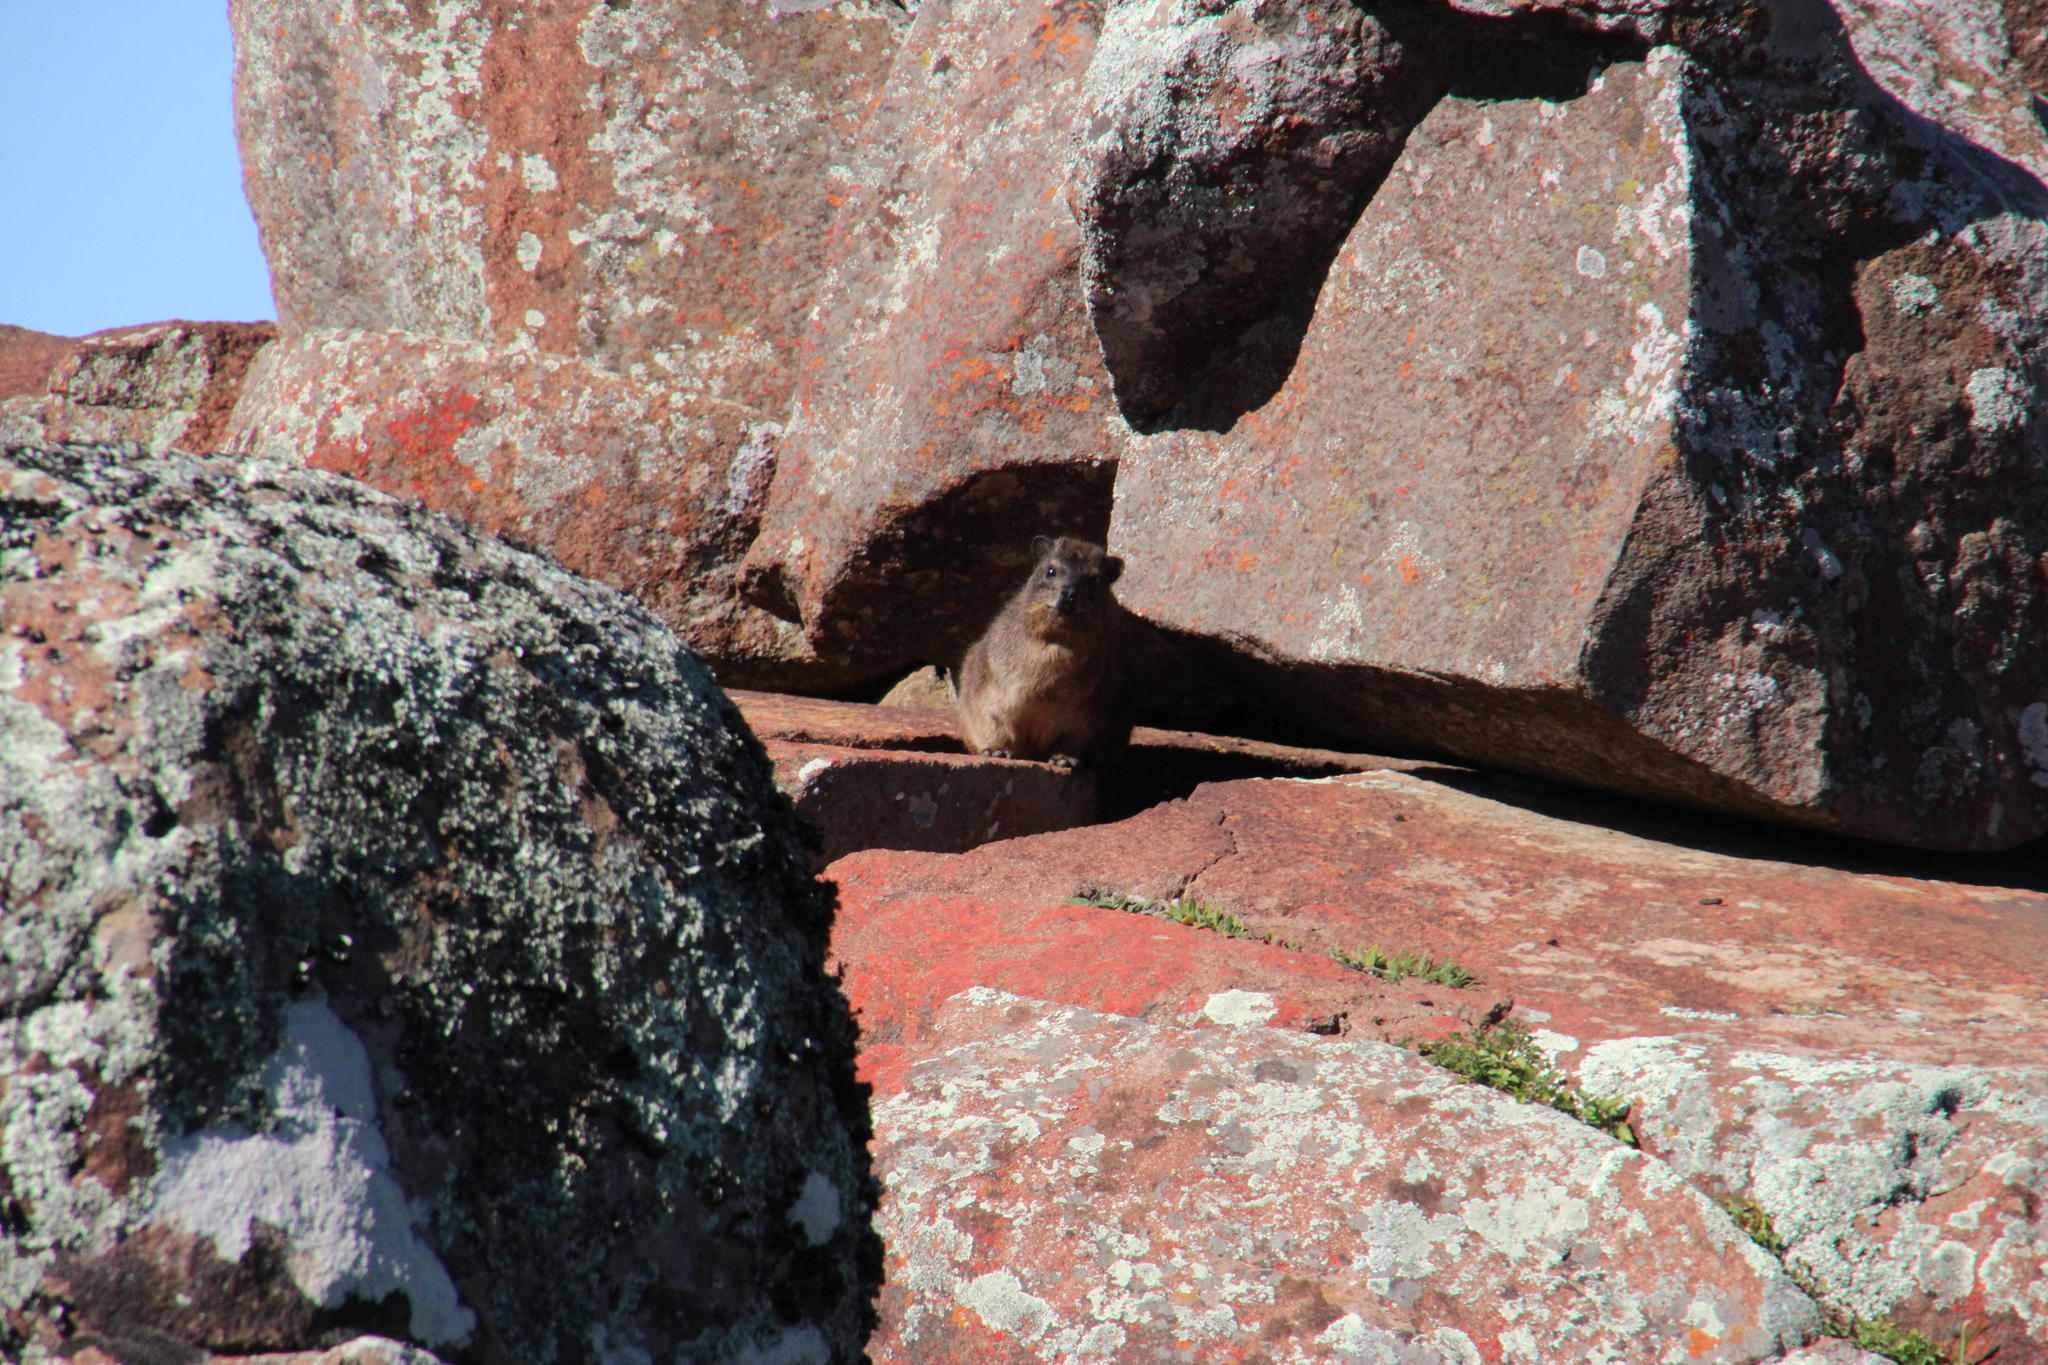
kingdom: Animalia
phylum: Chordata
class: Mammalia
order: Hyracoidea
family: Procaviidae
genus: Procavia
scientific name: Procavia capensis
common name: Rock hyrax
